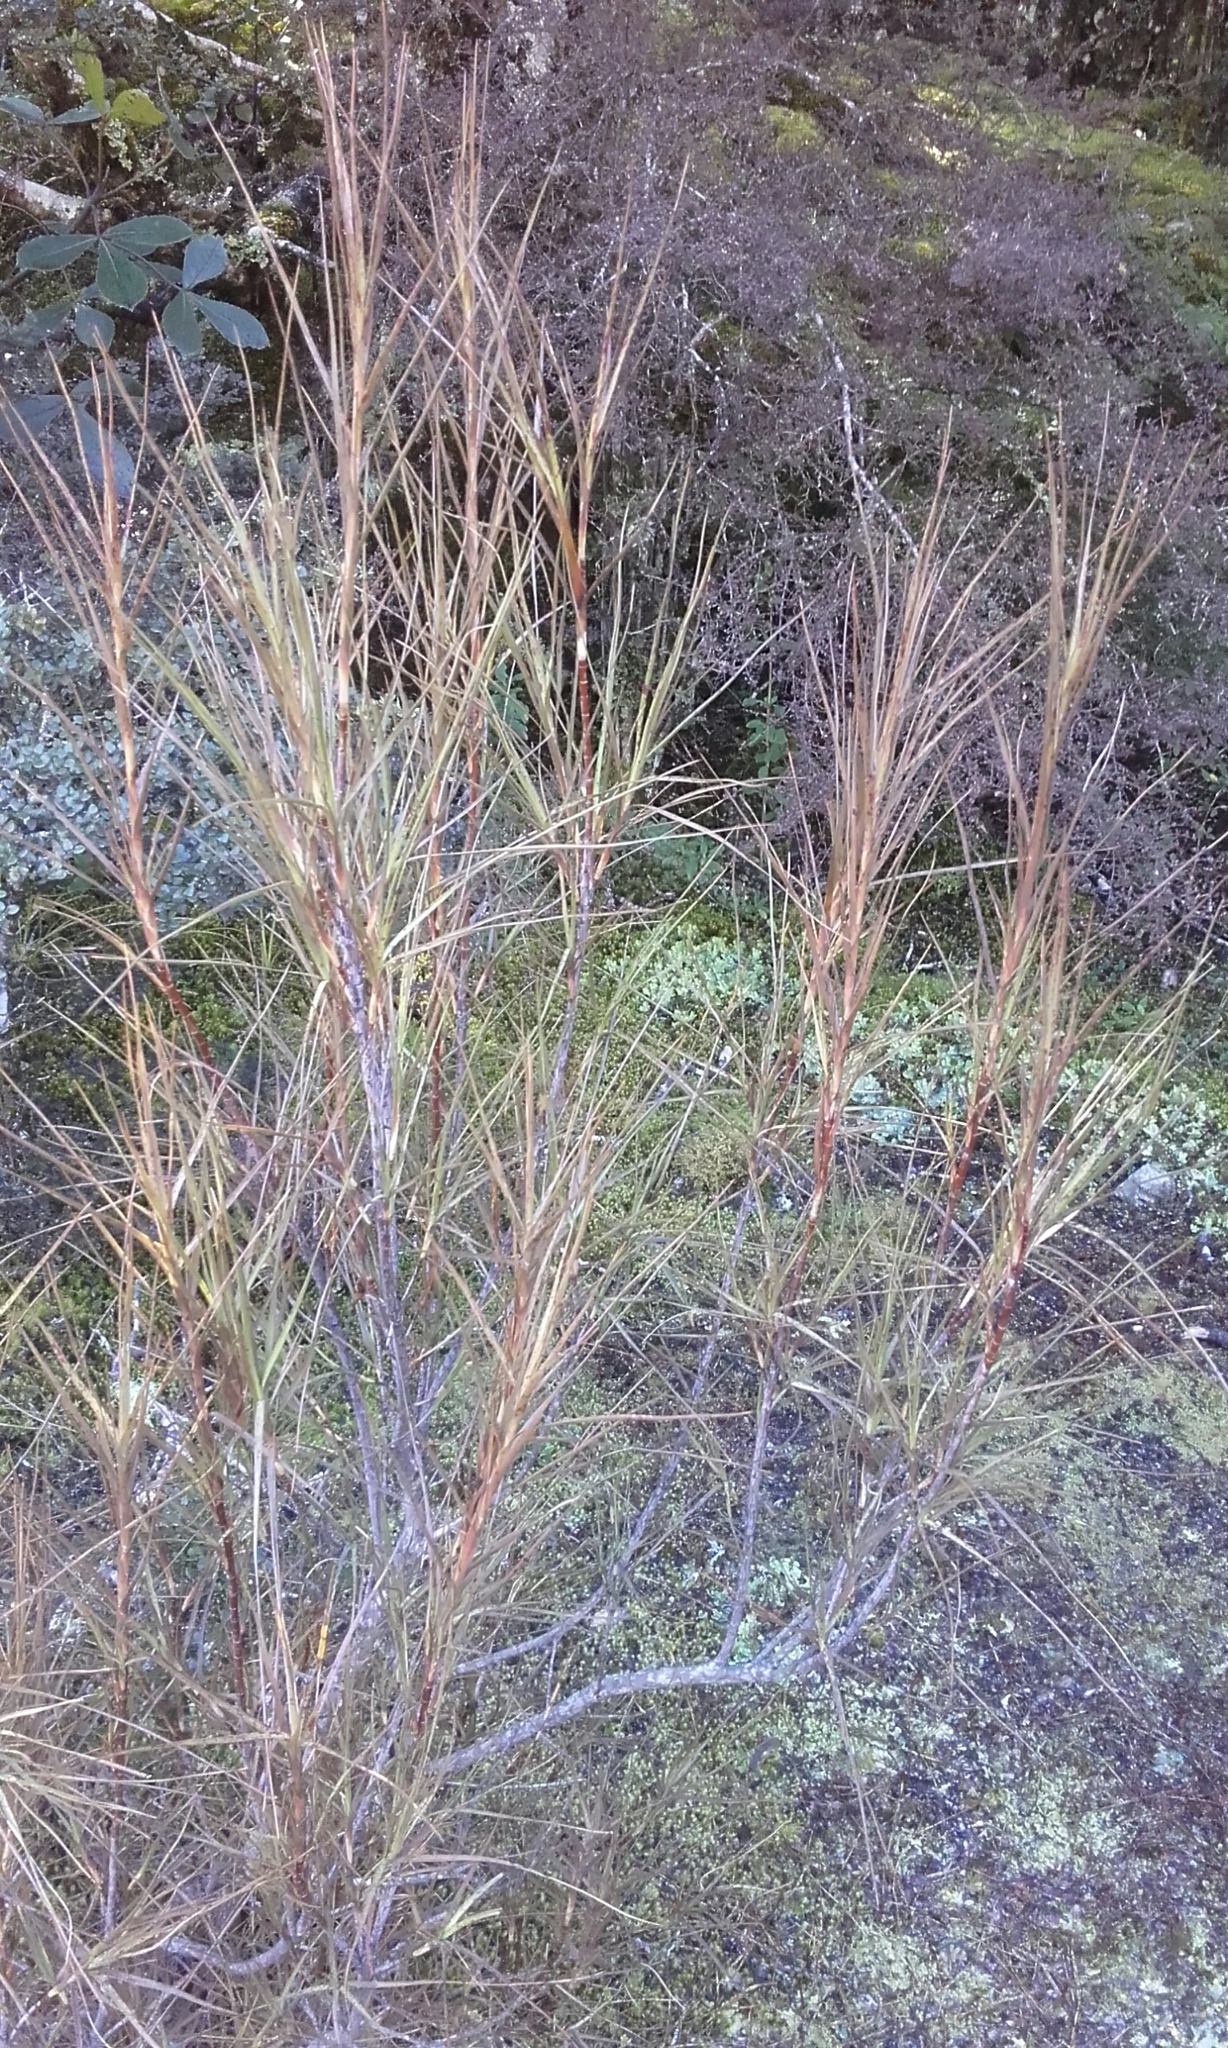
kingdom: Plantae
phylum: Tracheophyta
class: Magnoliopsida
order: Ericales
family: Ericaceae
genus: Dracophyllum
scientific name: Dracophyllum longifolium
